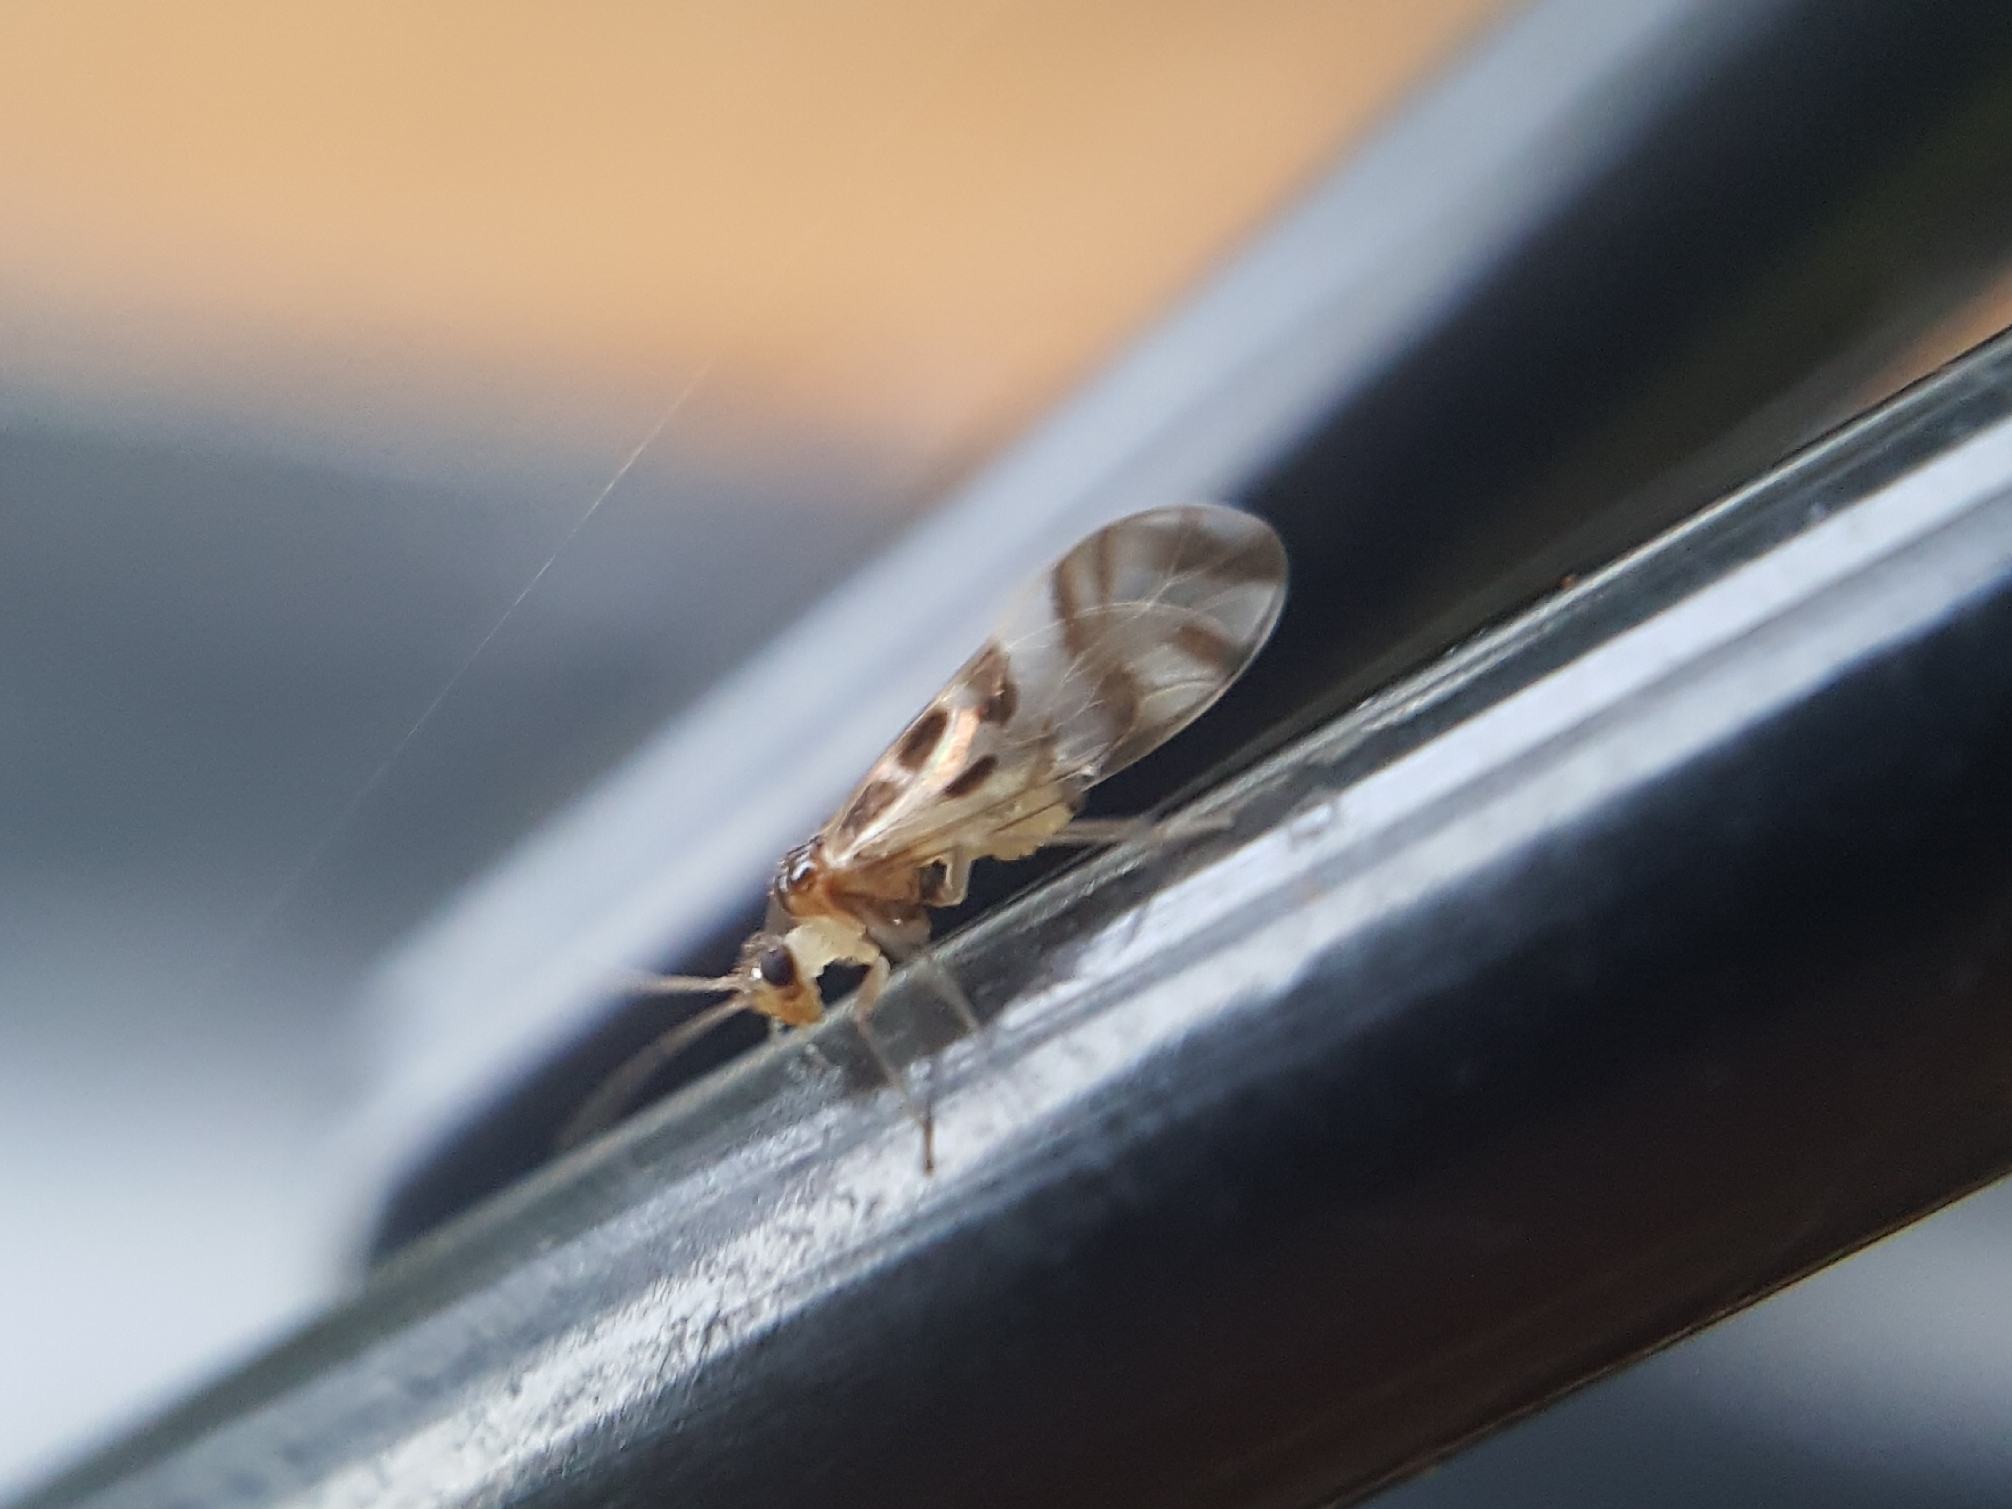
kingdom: Animalia
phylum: Arthropoda
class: Insecta
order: Psocodea
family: Stenopsocidae
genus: Graphopsocus
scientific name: Graphopsocus cruciatus
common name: Lizard bark louse
